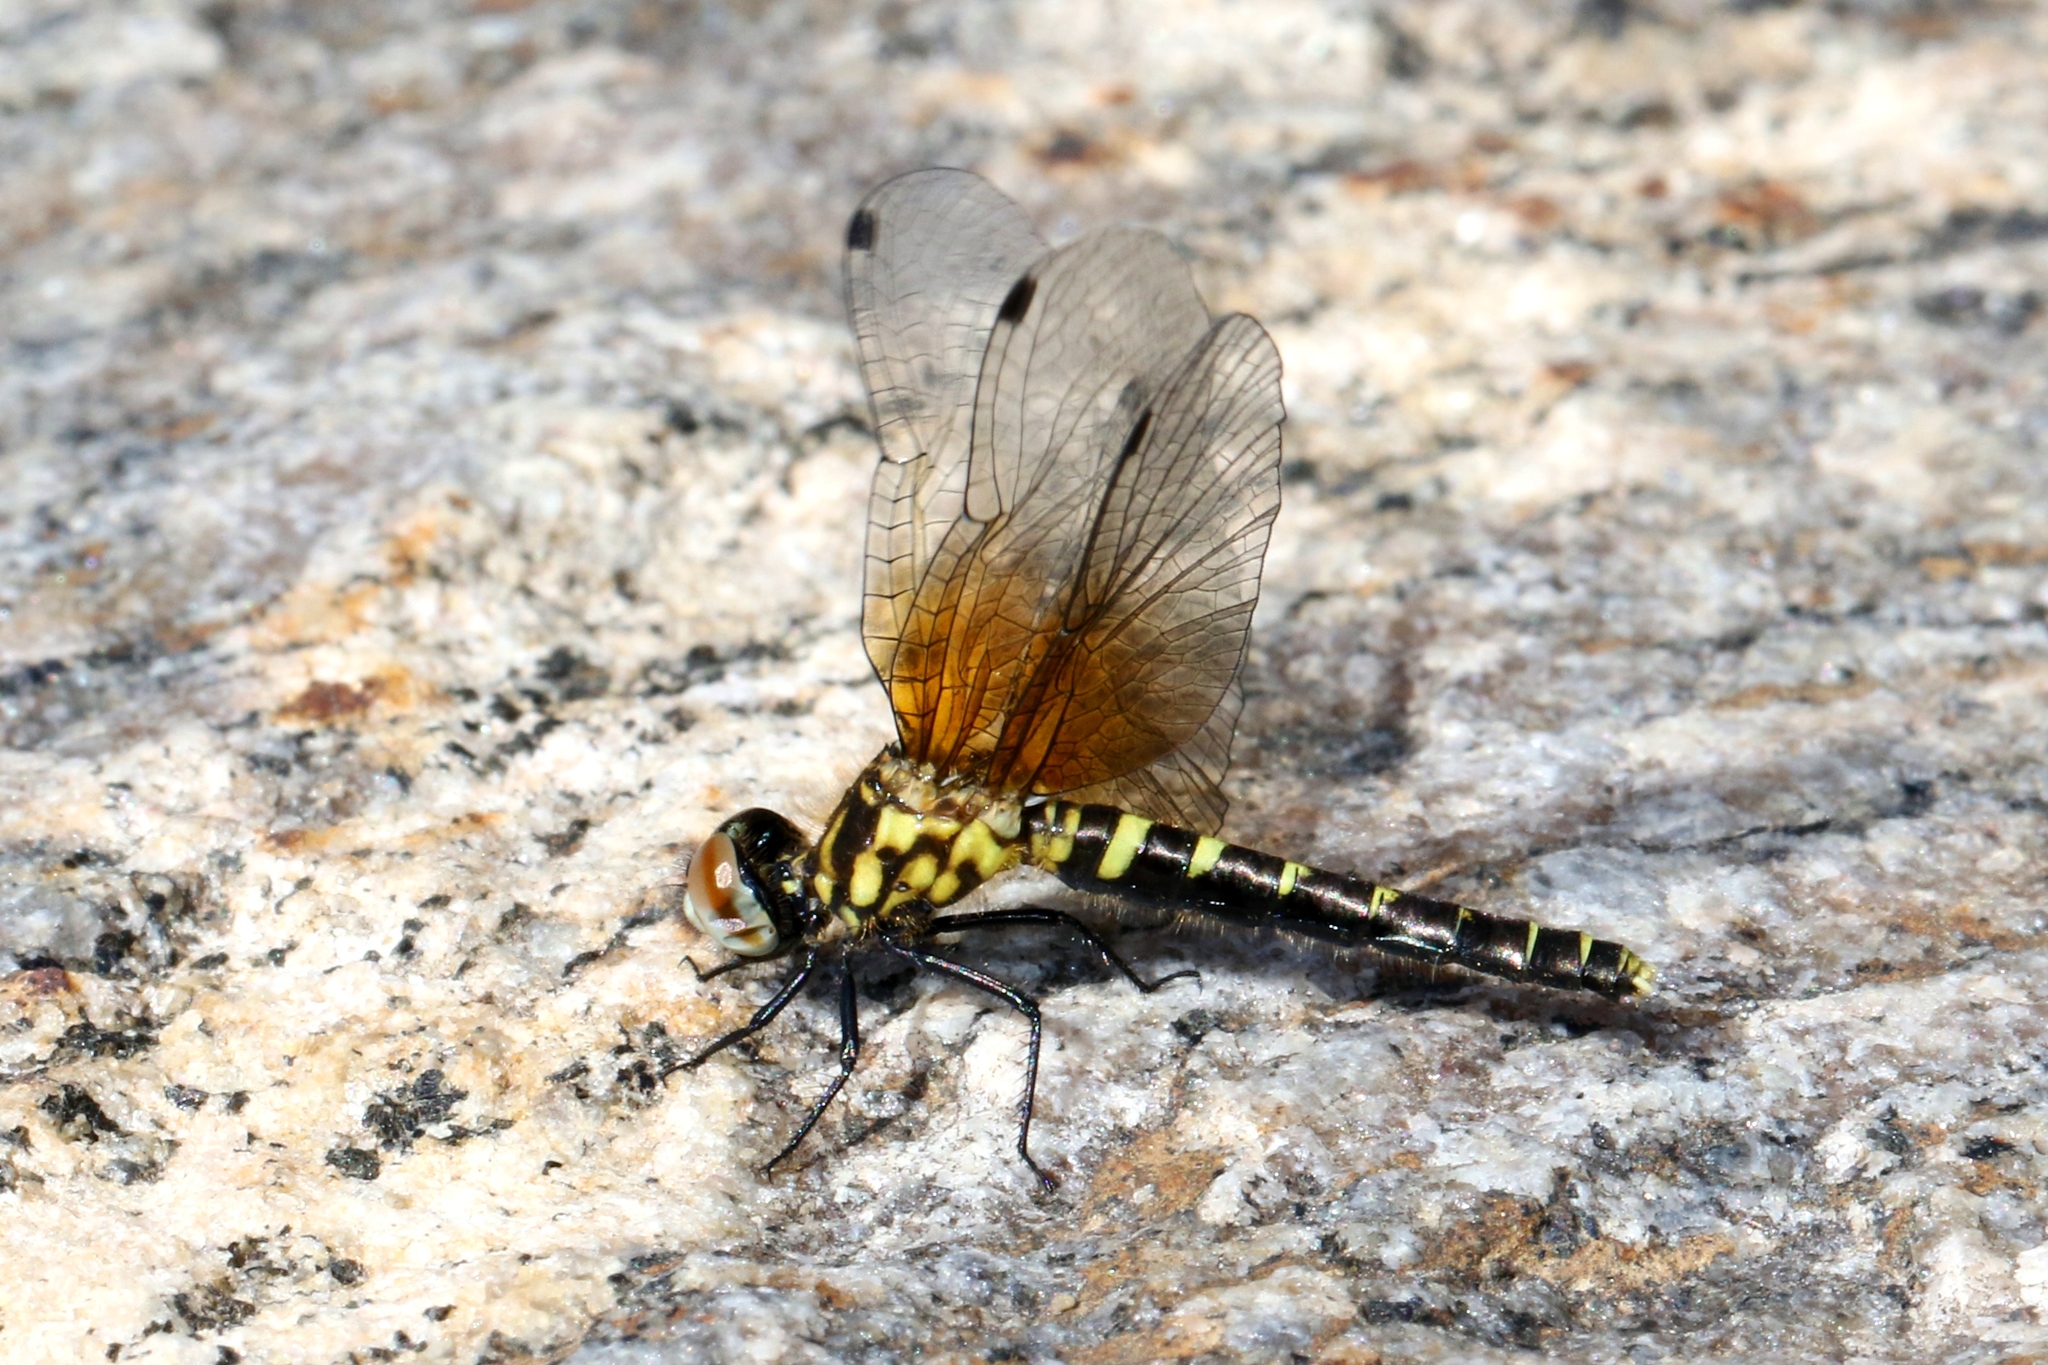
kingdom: Animalia
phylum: Arthropoda
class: Insecta
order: Odonata
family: Libellulidae
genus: Nannothemis
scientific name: Nannothemis bella
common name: Elfin skimmer
